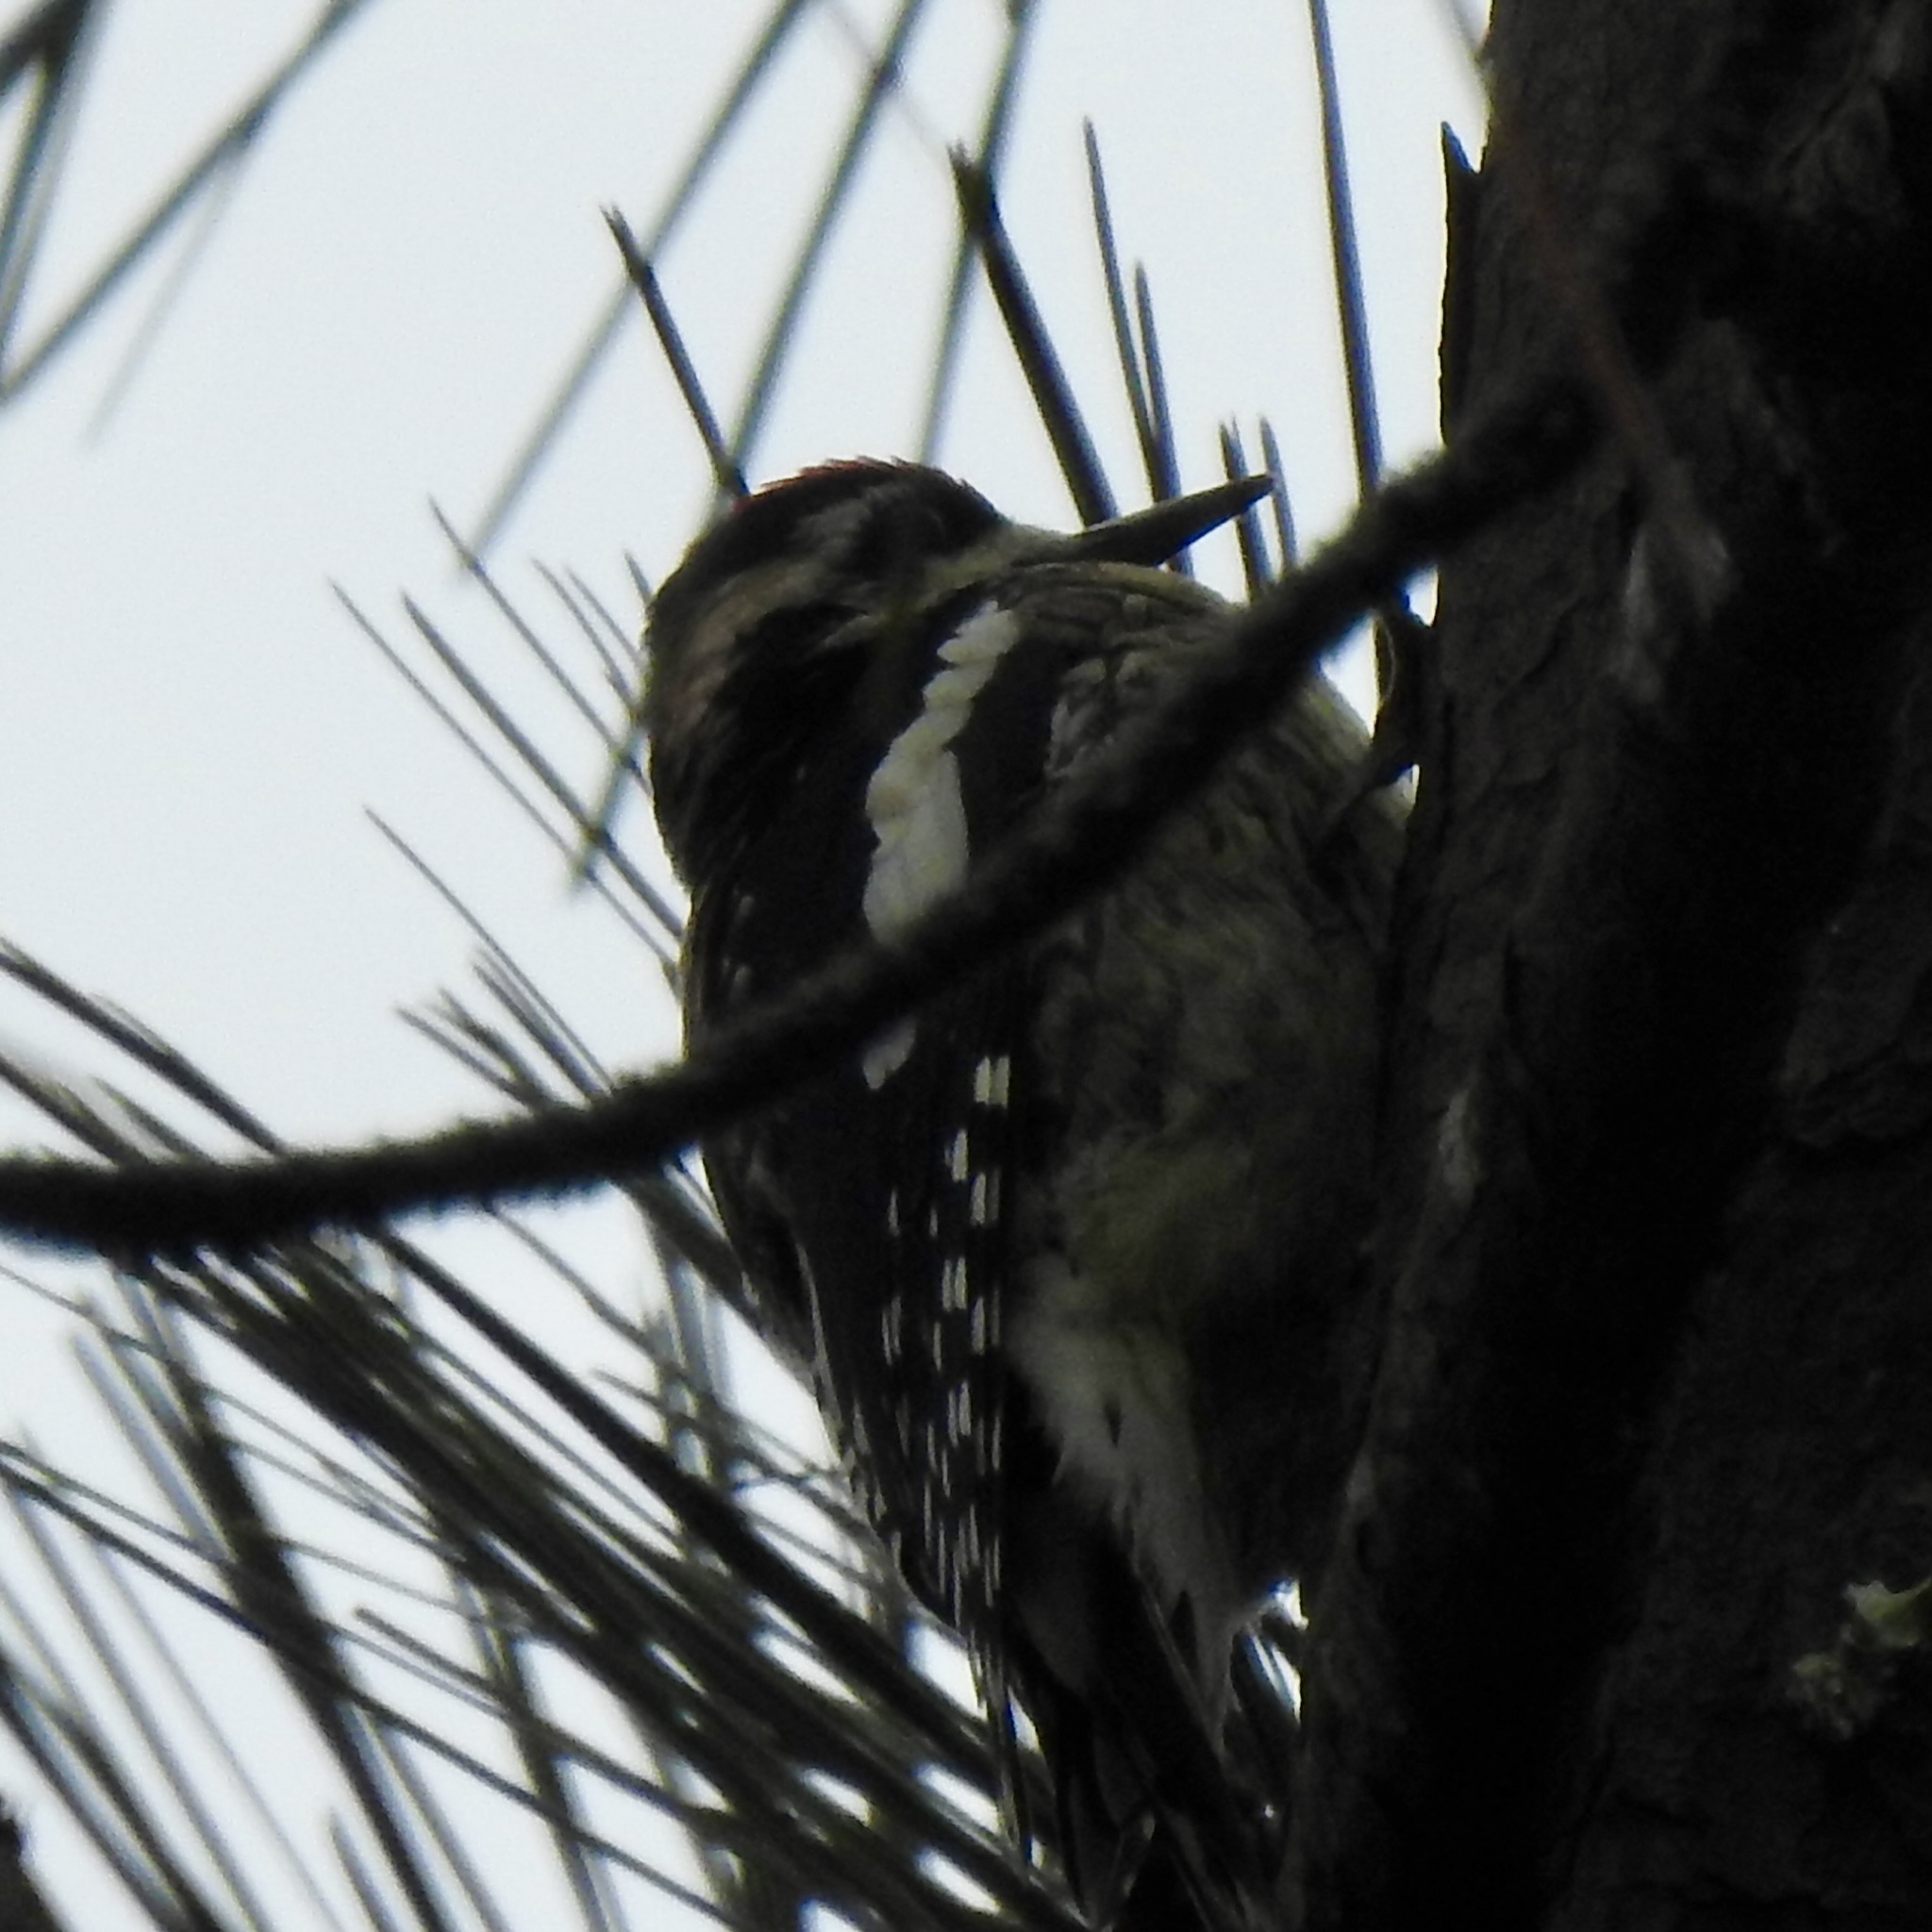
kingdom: Animalia
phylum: Chordata
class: Aves
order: Piciformes
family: Picidae
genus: Sphyrapicus
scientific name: Sphyrapicus varius
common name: Yellow-bellied sapsucker
